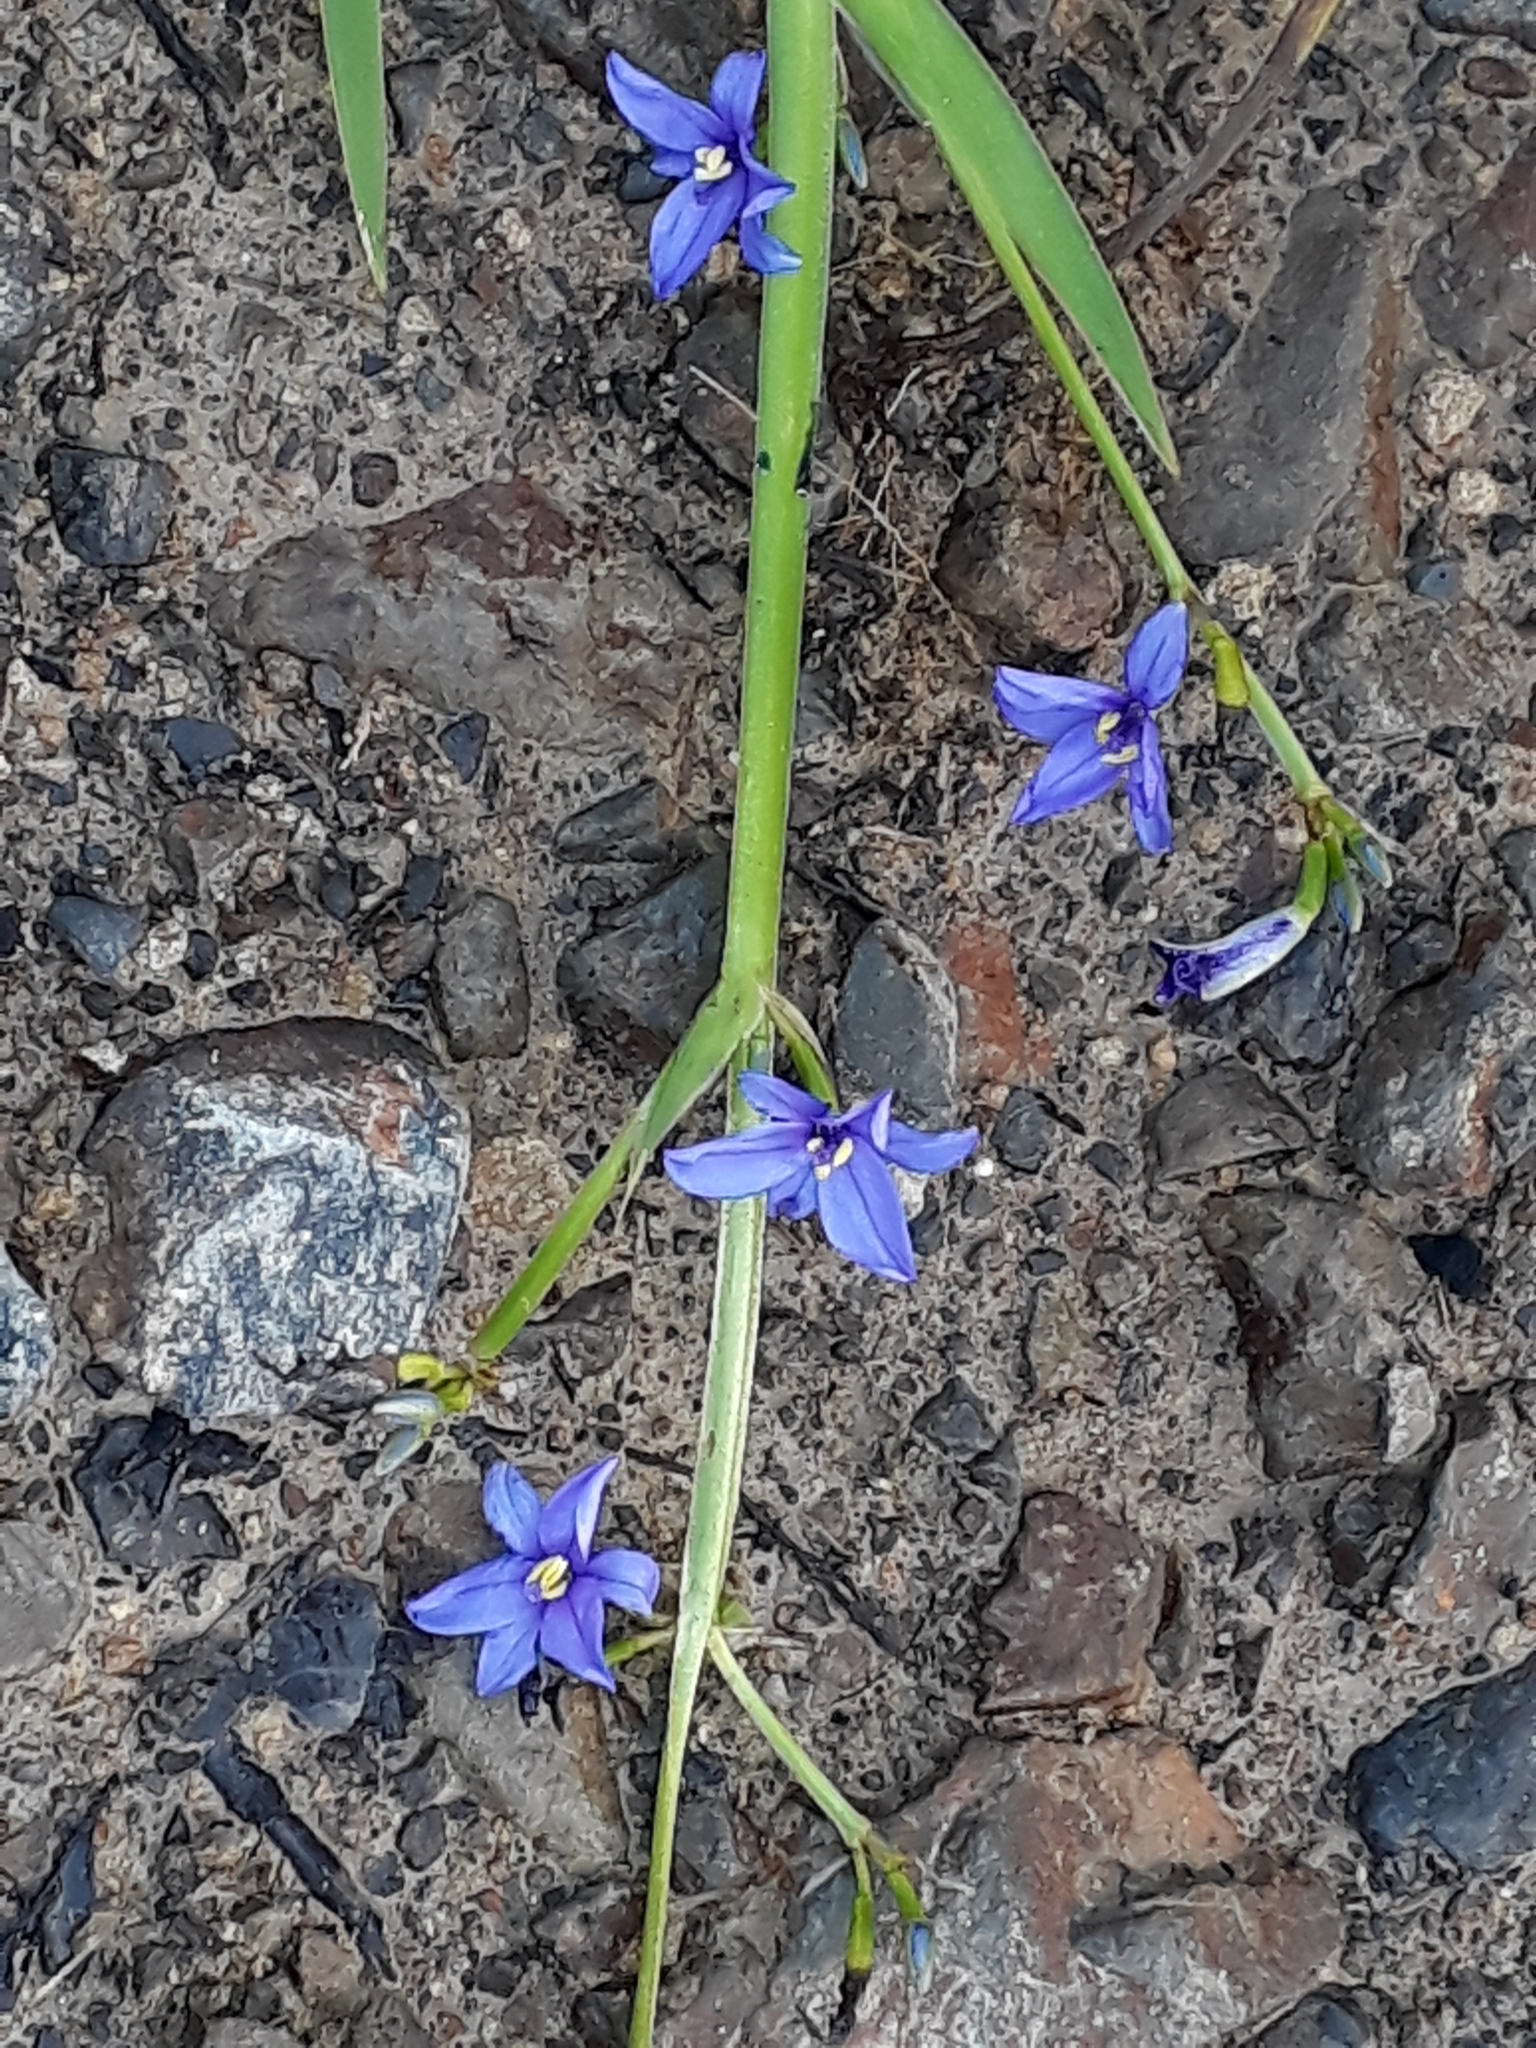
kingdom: Plantae
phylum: Tracheophyta
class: Liliopsida
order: Asparagales
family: Iridaceae
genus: Aristea
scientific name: Aristea ecklonii
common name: Blue corn-lily
